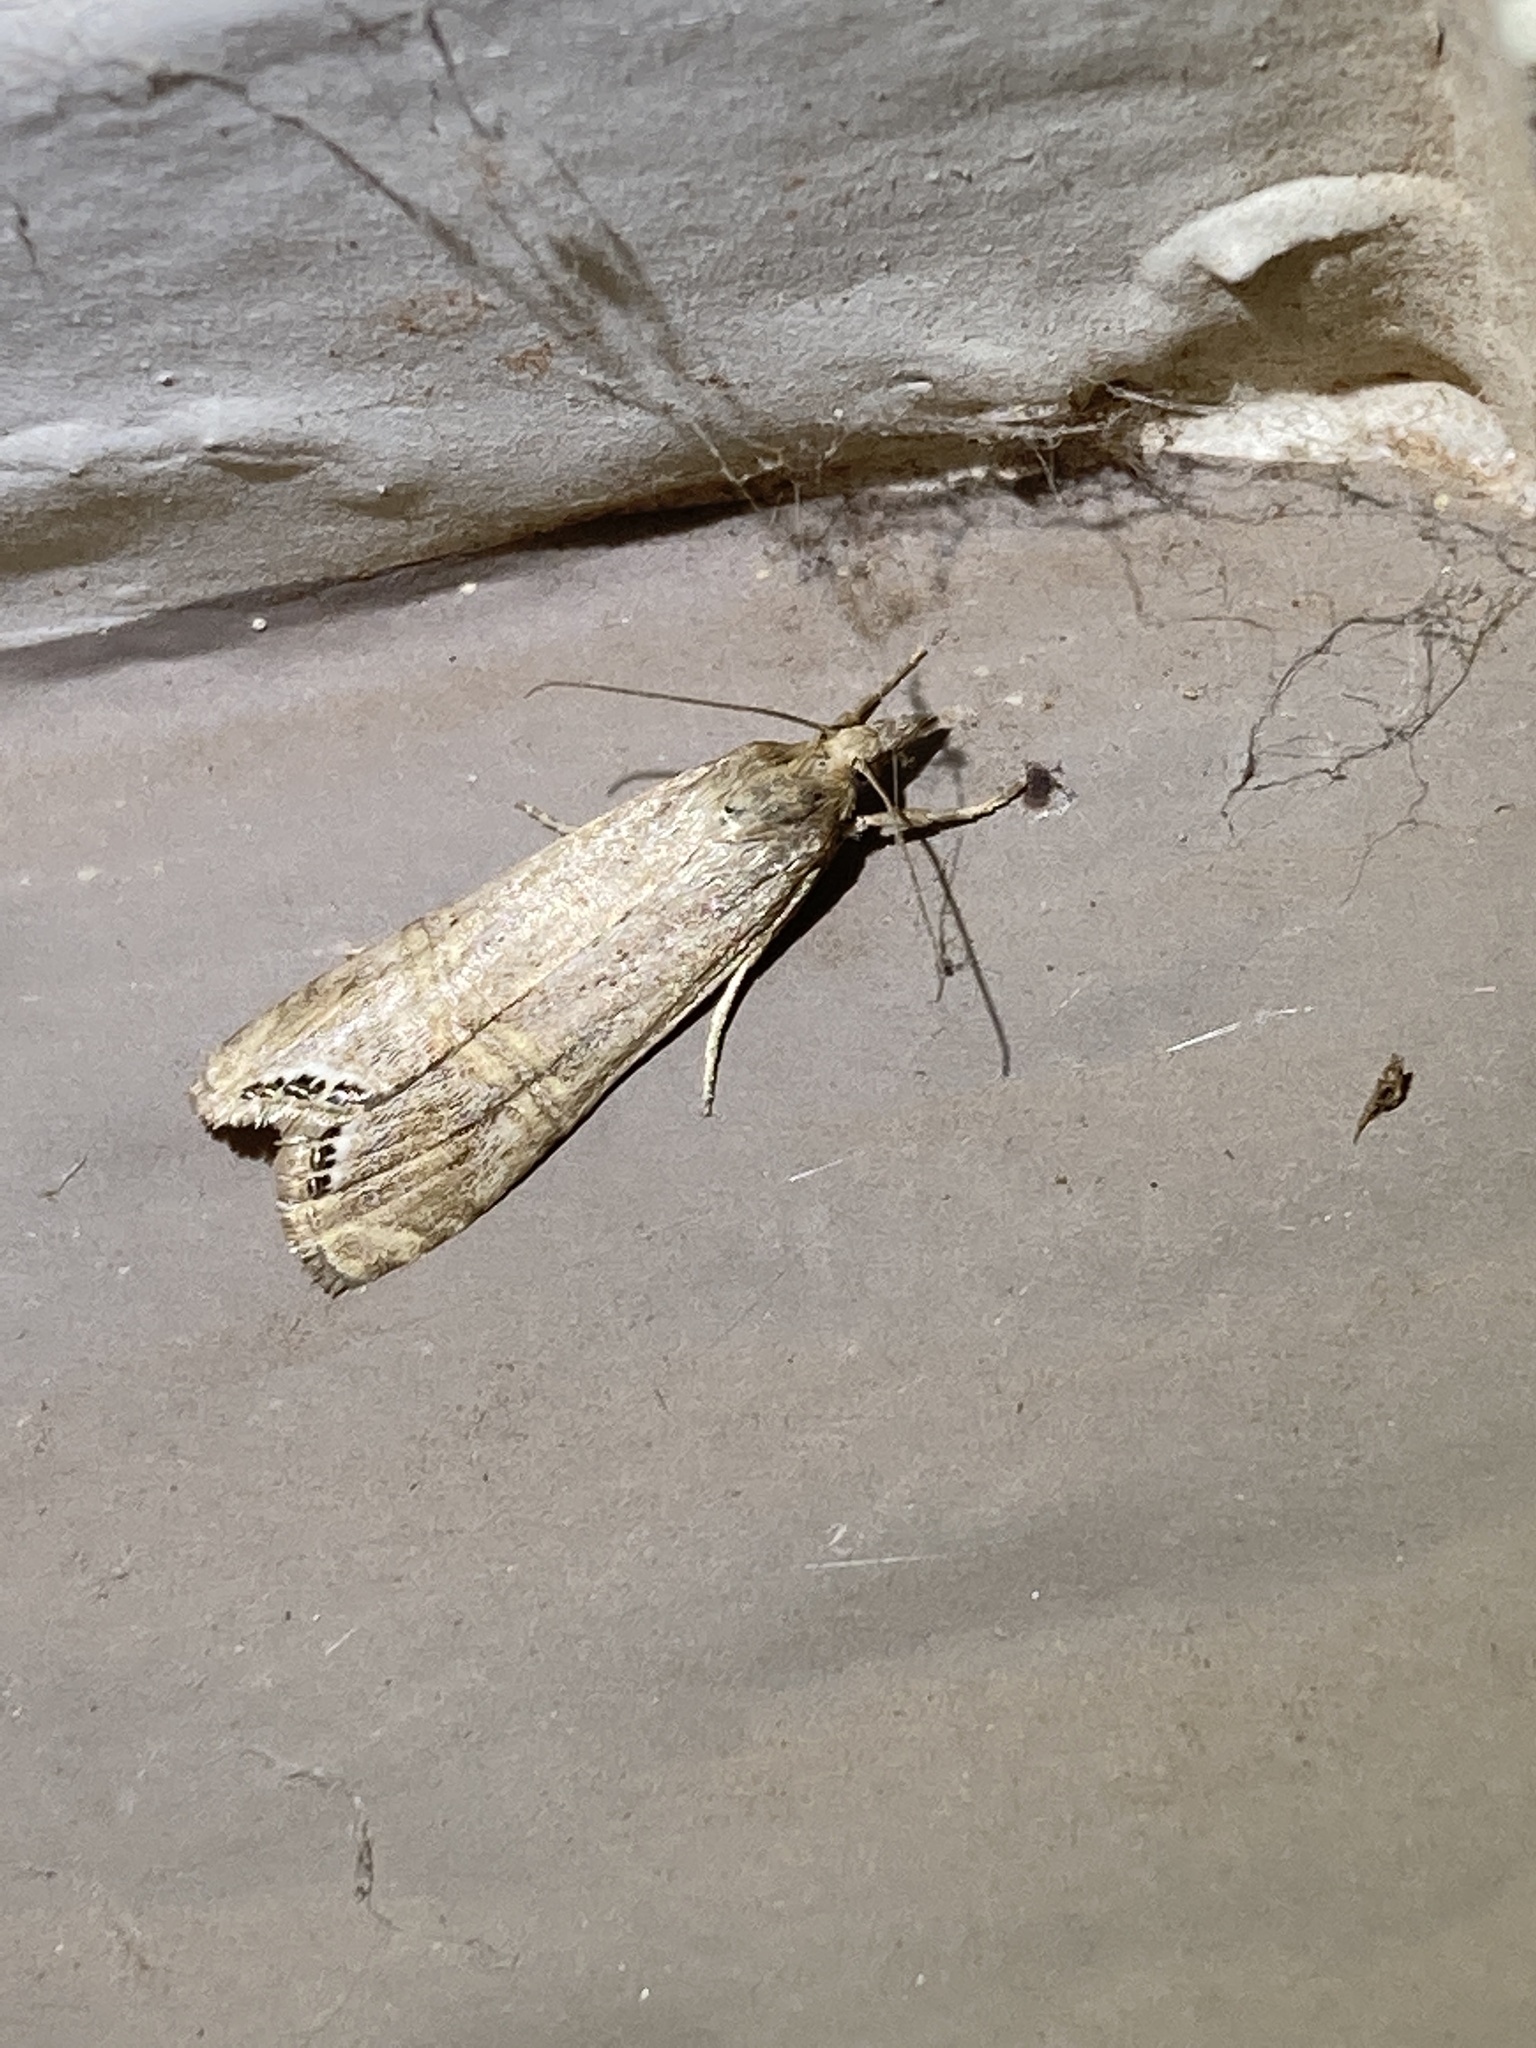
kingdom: Animalia
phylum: Arthropoda
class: Insecta
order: Lepidoptera
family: Crambidae
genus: Euchromius
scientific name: Euchromius ocellea
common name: Necklace veneer moth
